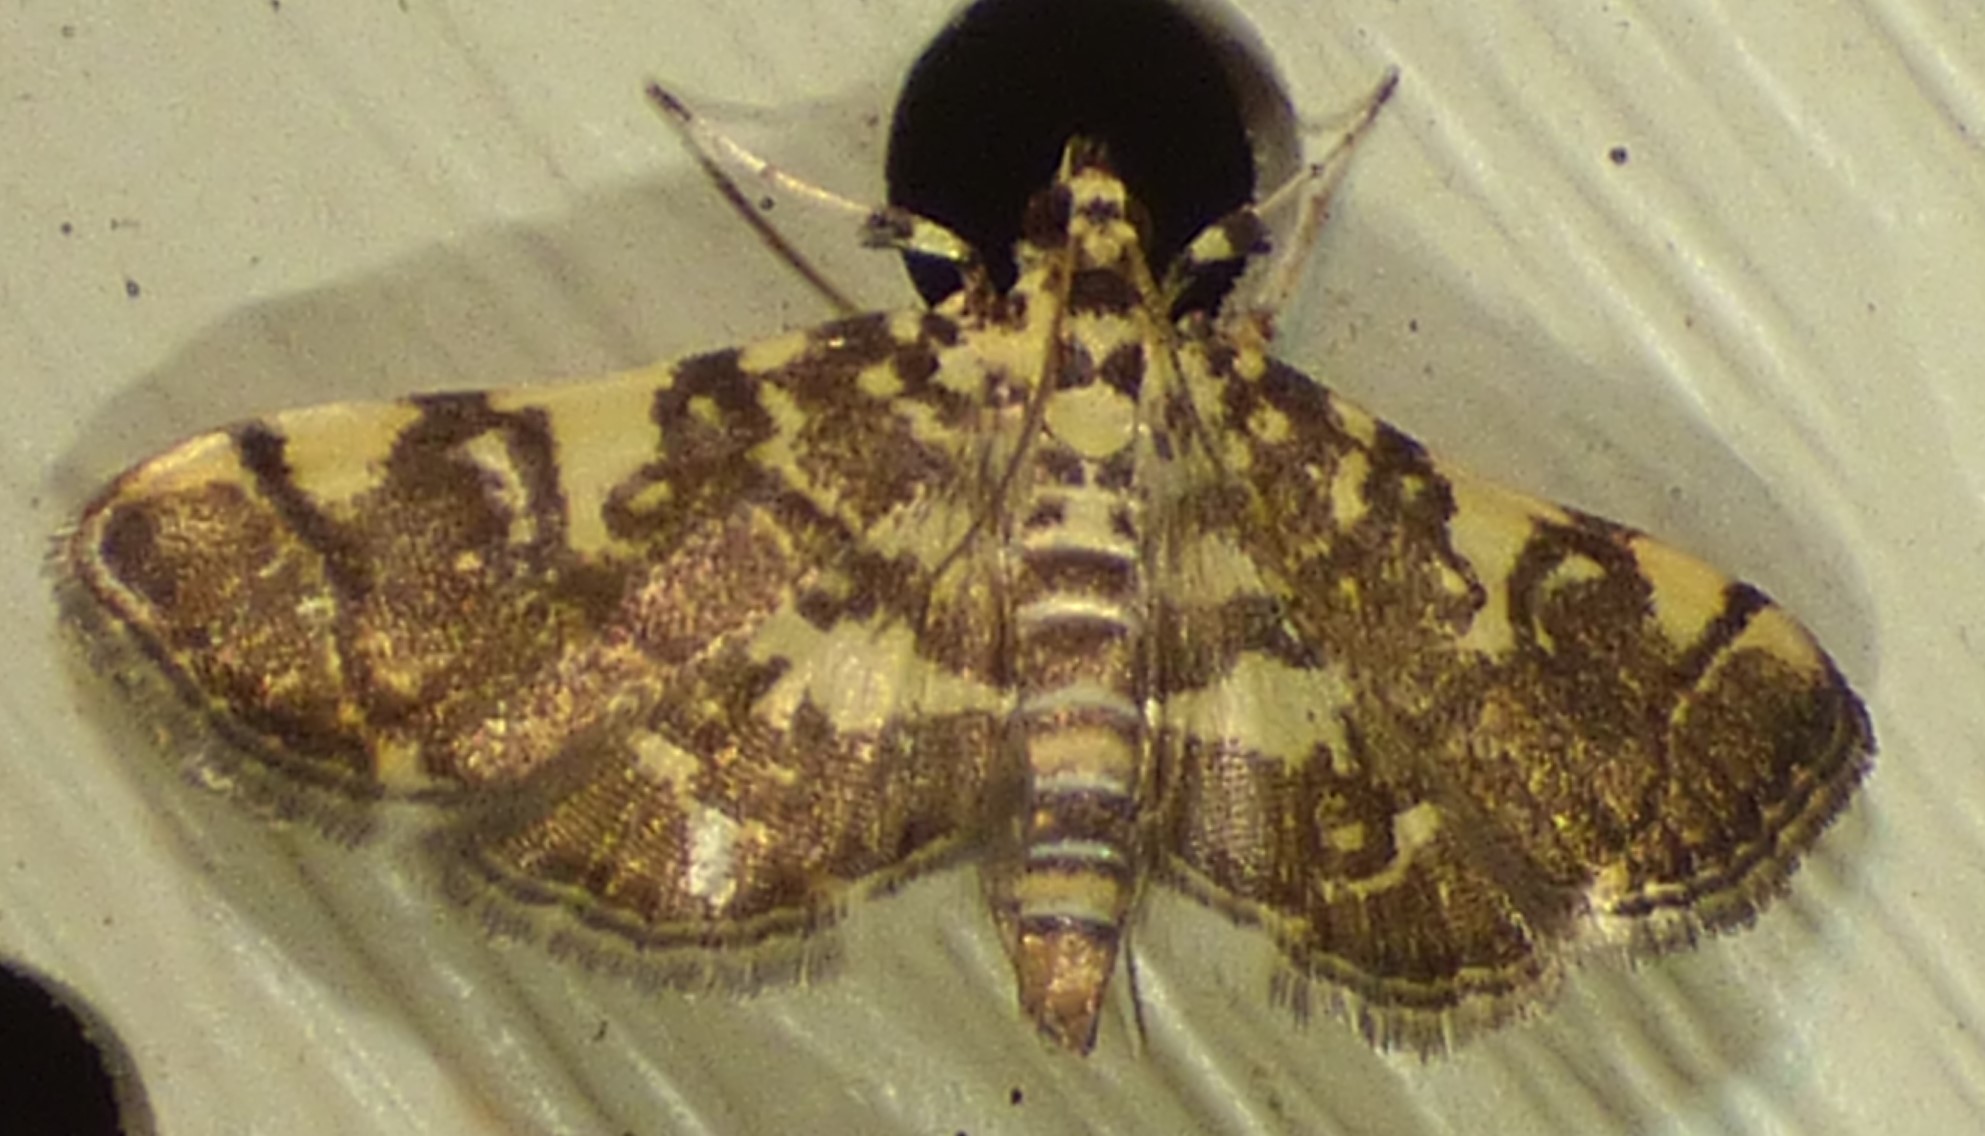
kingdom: Animalia
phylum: Arthropoda
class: Insecta
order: Lepidoptera
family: Crambidae
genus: Apogeshna
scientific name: Apogeshna stenialis
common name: Checkered apogeshna moth
